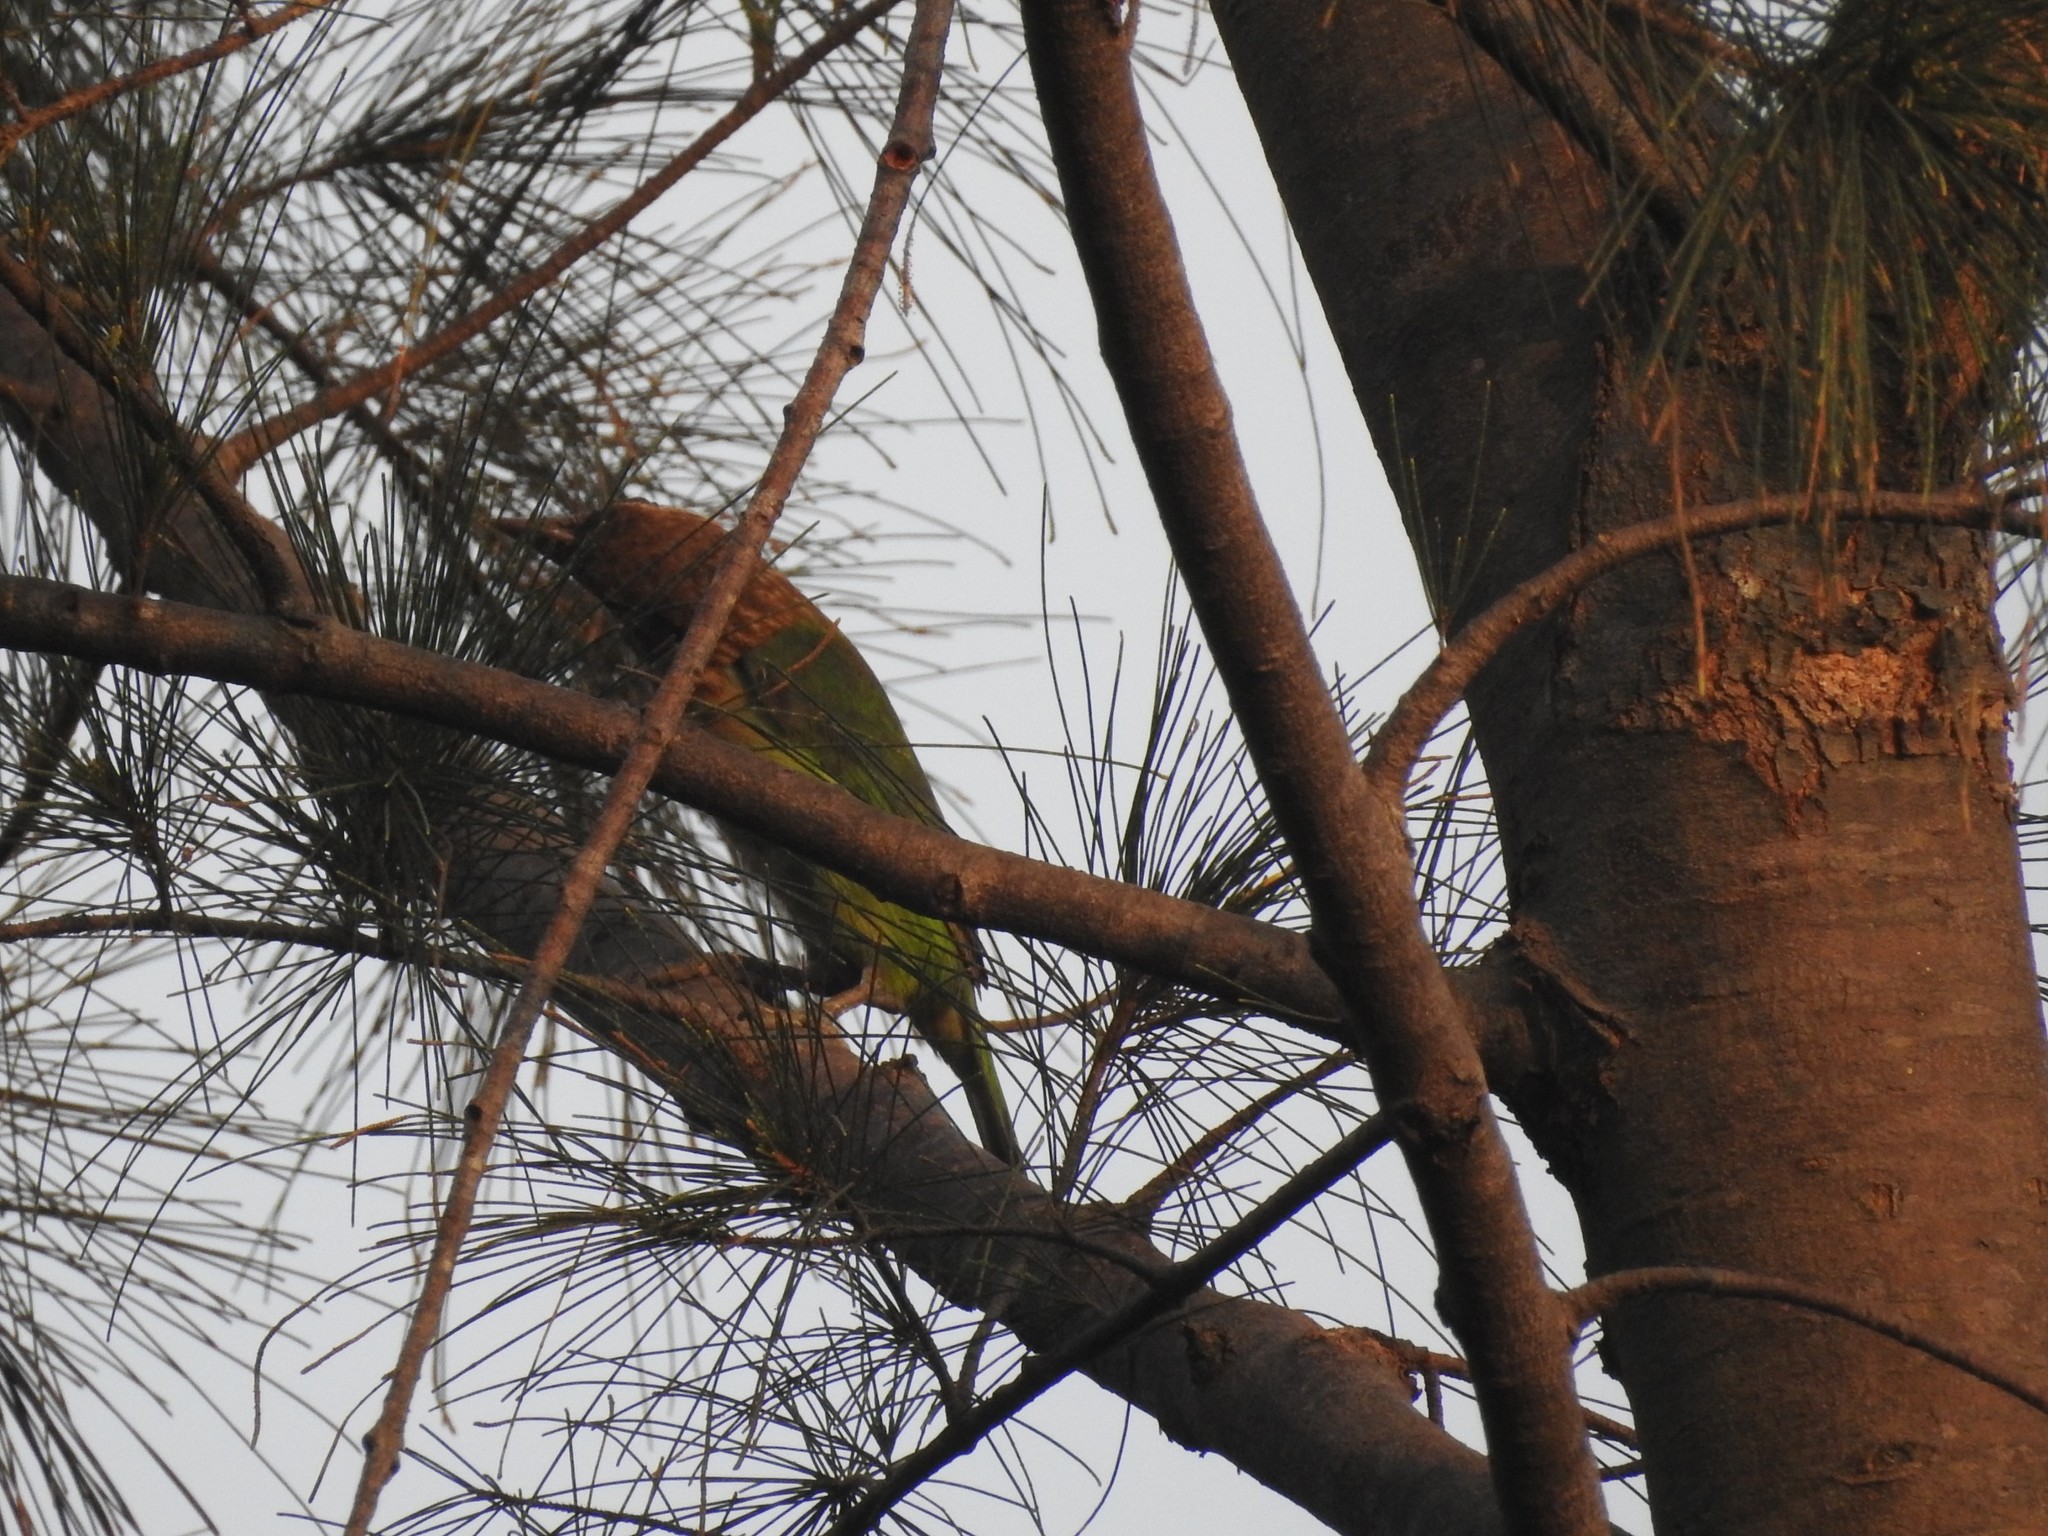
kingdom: Animalia
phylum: Chordata
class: Aves
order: Piciformes
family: Megalaimidae
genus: Psilopogon
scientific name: Psilopogon viridis
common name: White-cheeked barbet
